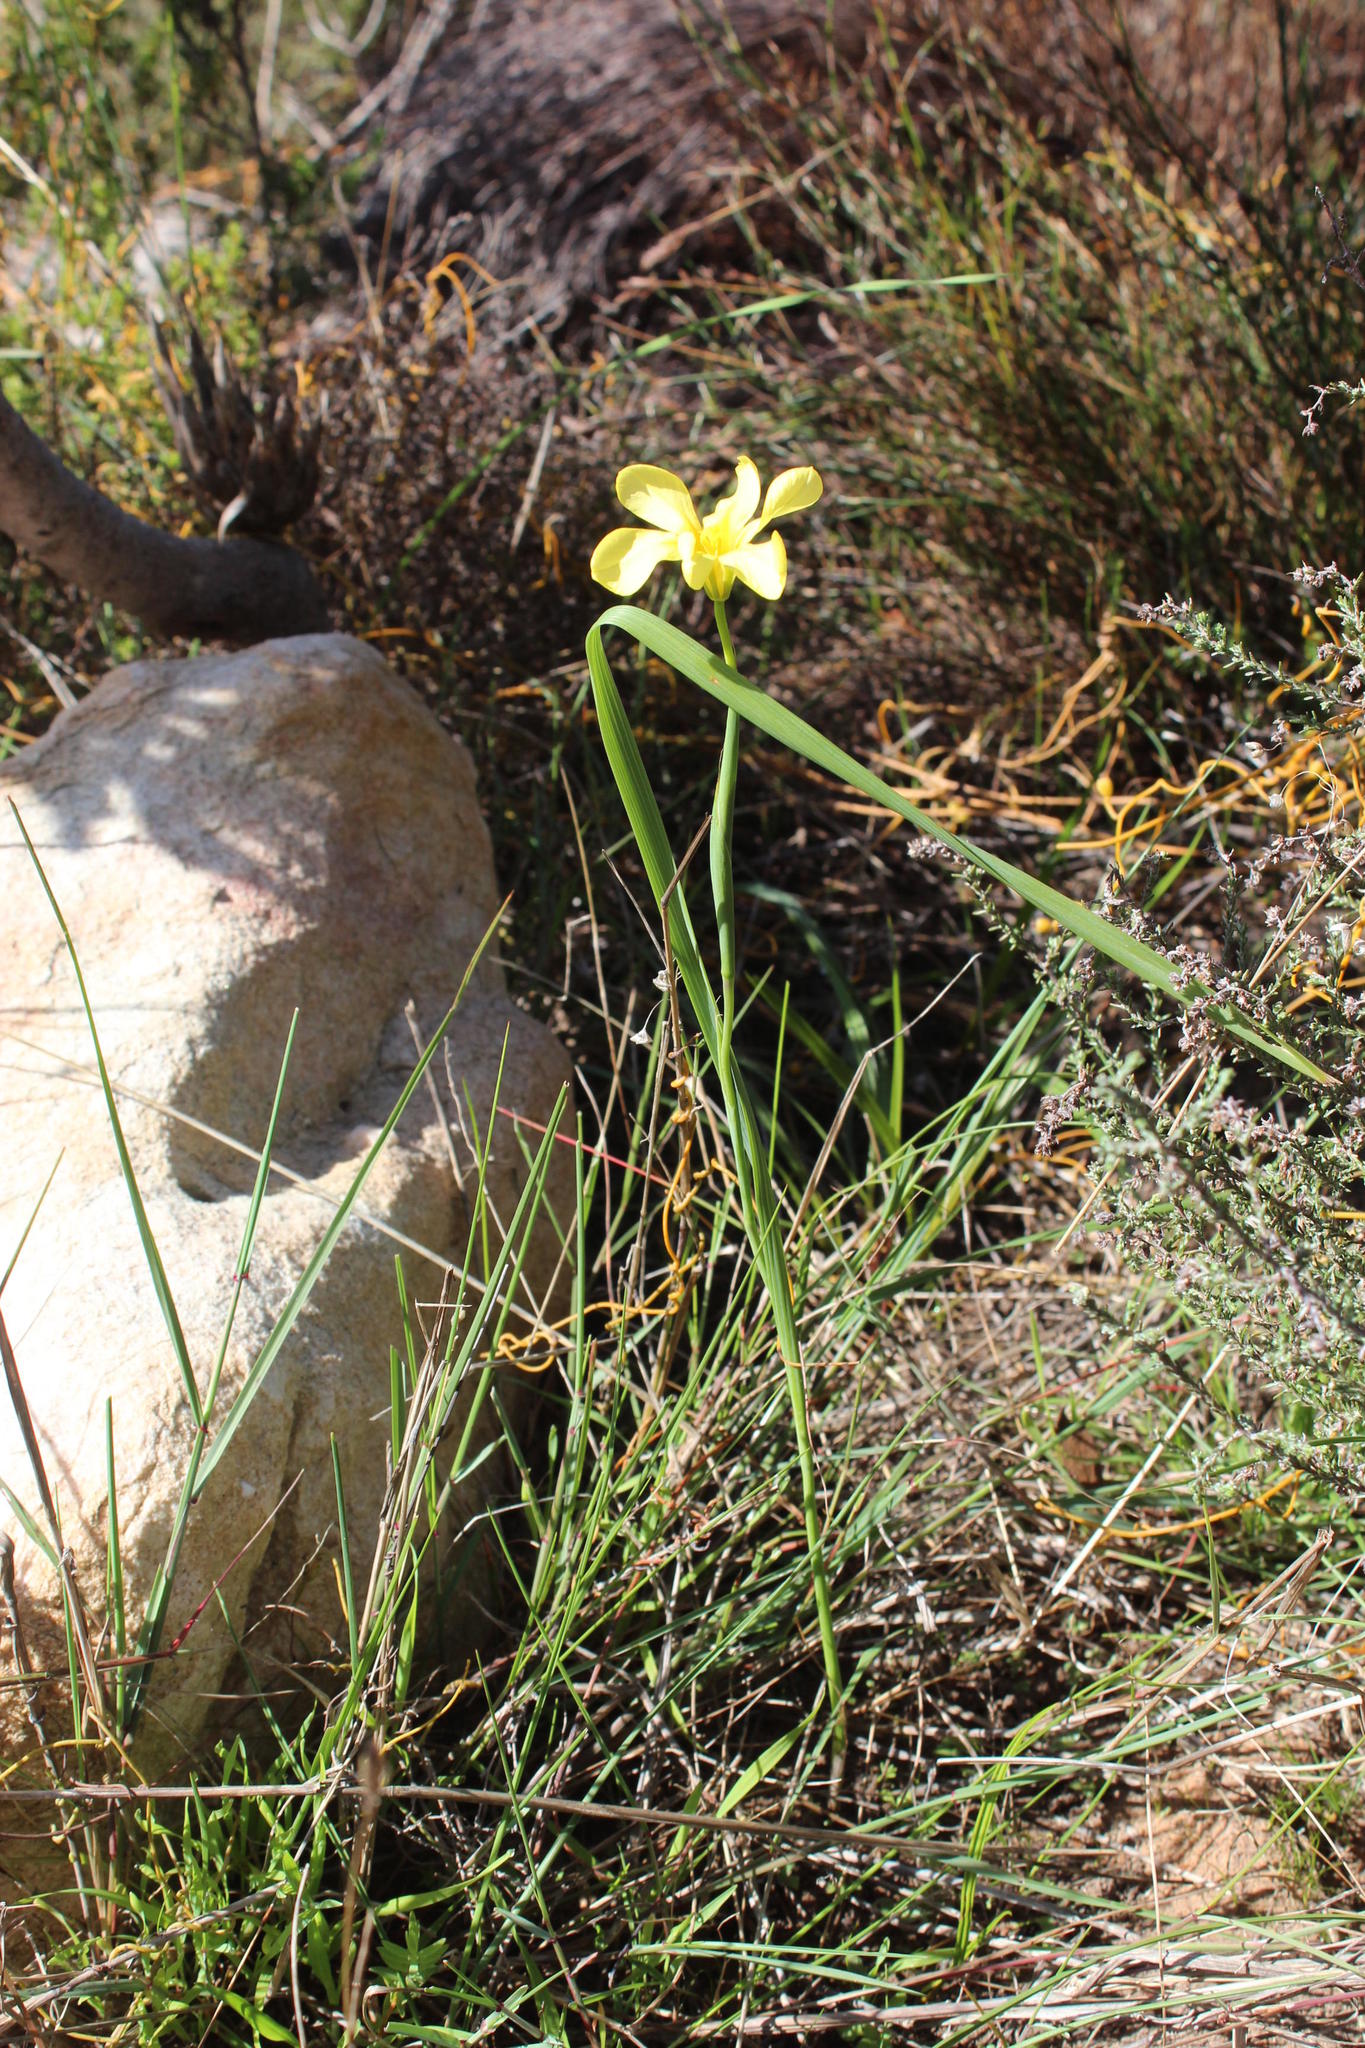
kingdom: Plantae
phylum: Tracheophyta
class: Liliopsida
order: Asparagales
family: Iridaceae
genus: Moraea
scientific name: Moraea flaccida
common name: One-leaf cape-tulip
